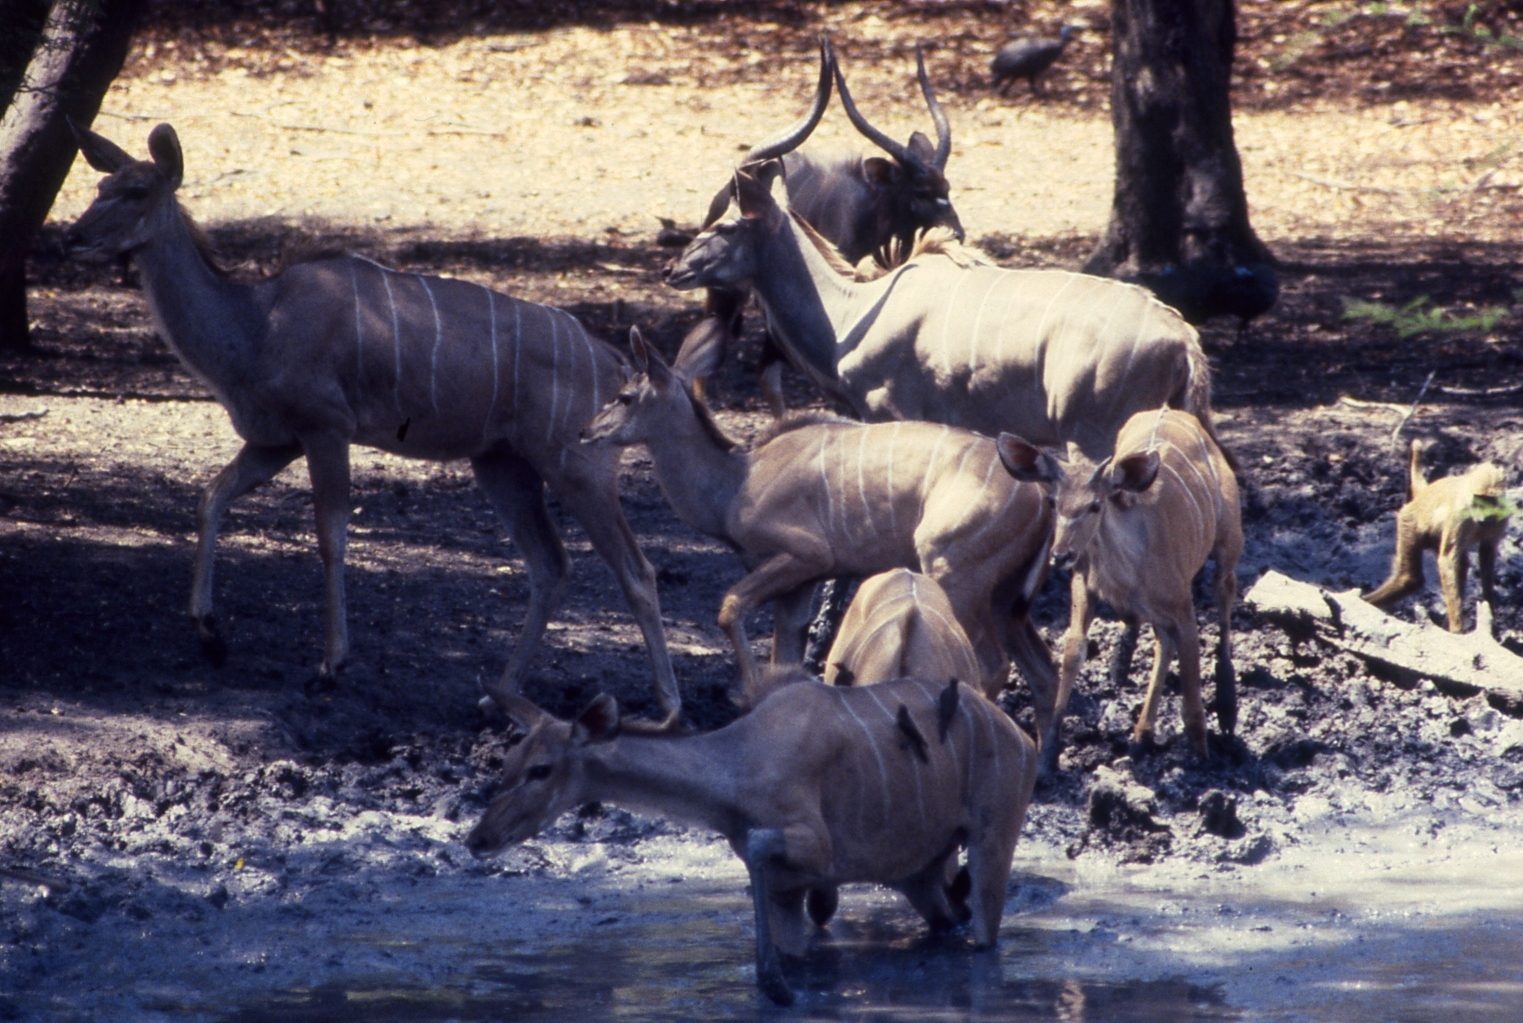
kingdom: Animalia
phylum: Chordata
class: Mammalia
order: Artiodactyla
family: Bovidae
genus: Tragelaphus
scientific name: Tragelaphus strepsiceros
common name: Greater kudu
